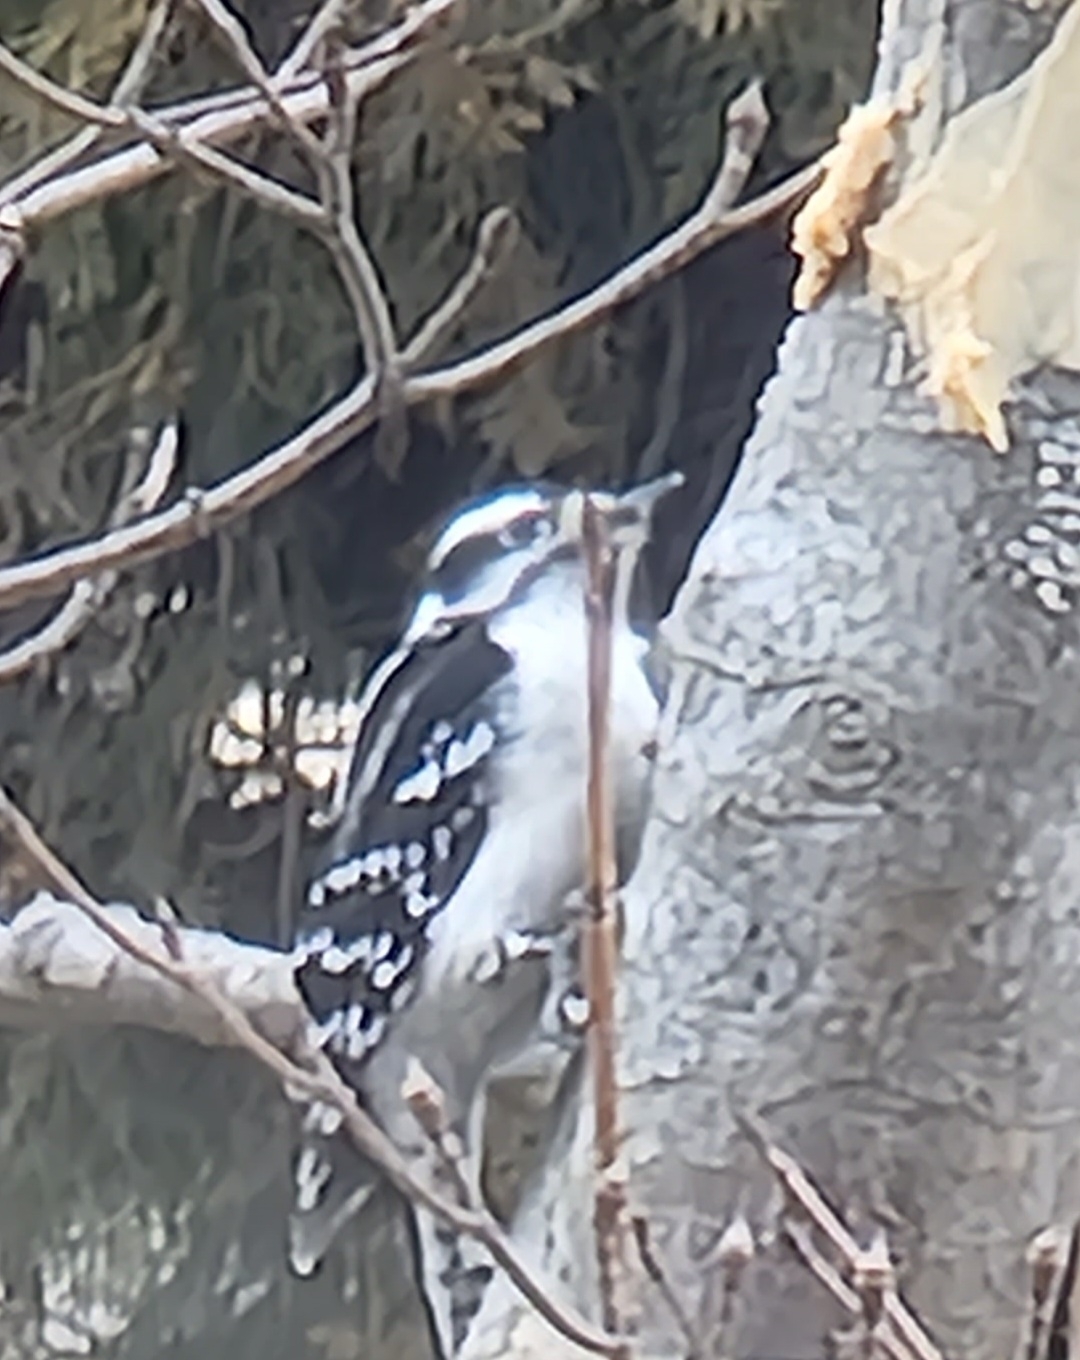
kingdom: Animalia
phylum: Chordata
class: Aves
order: Piciformes
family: Picidae
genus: Dryobates
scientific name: Dryobates pubescens
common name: Downy woodpecker
